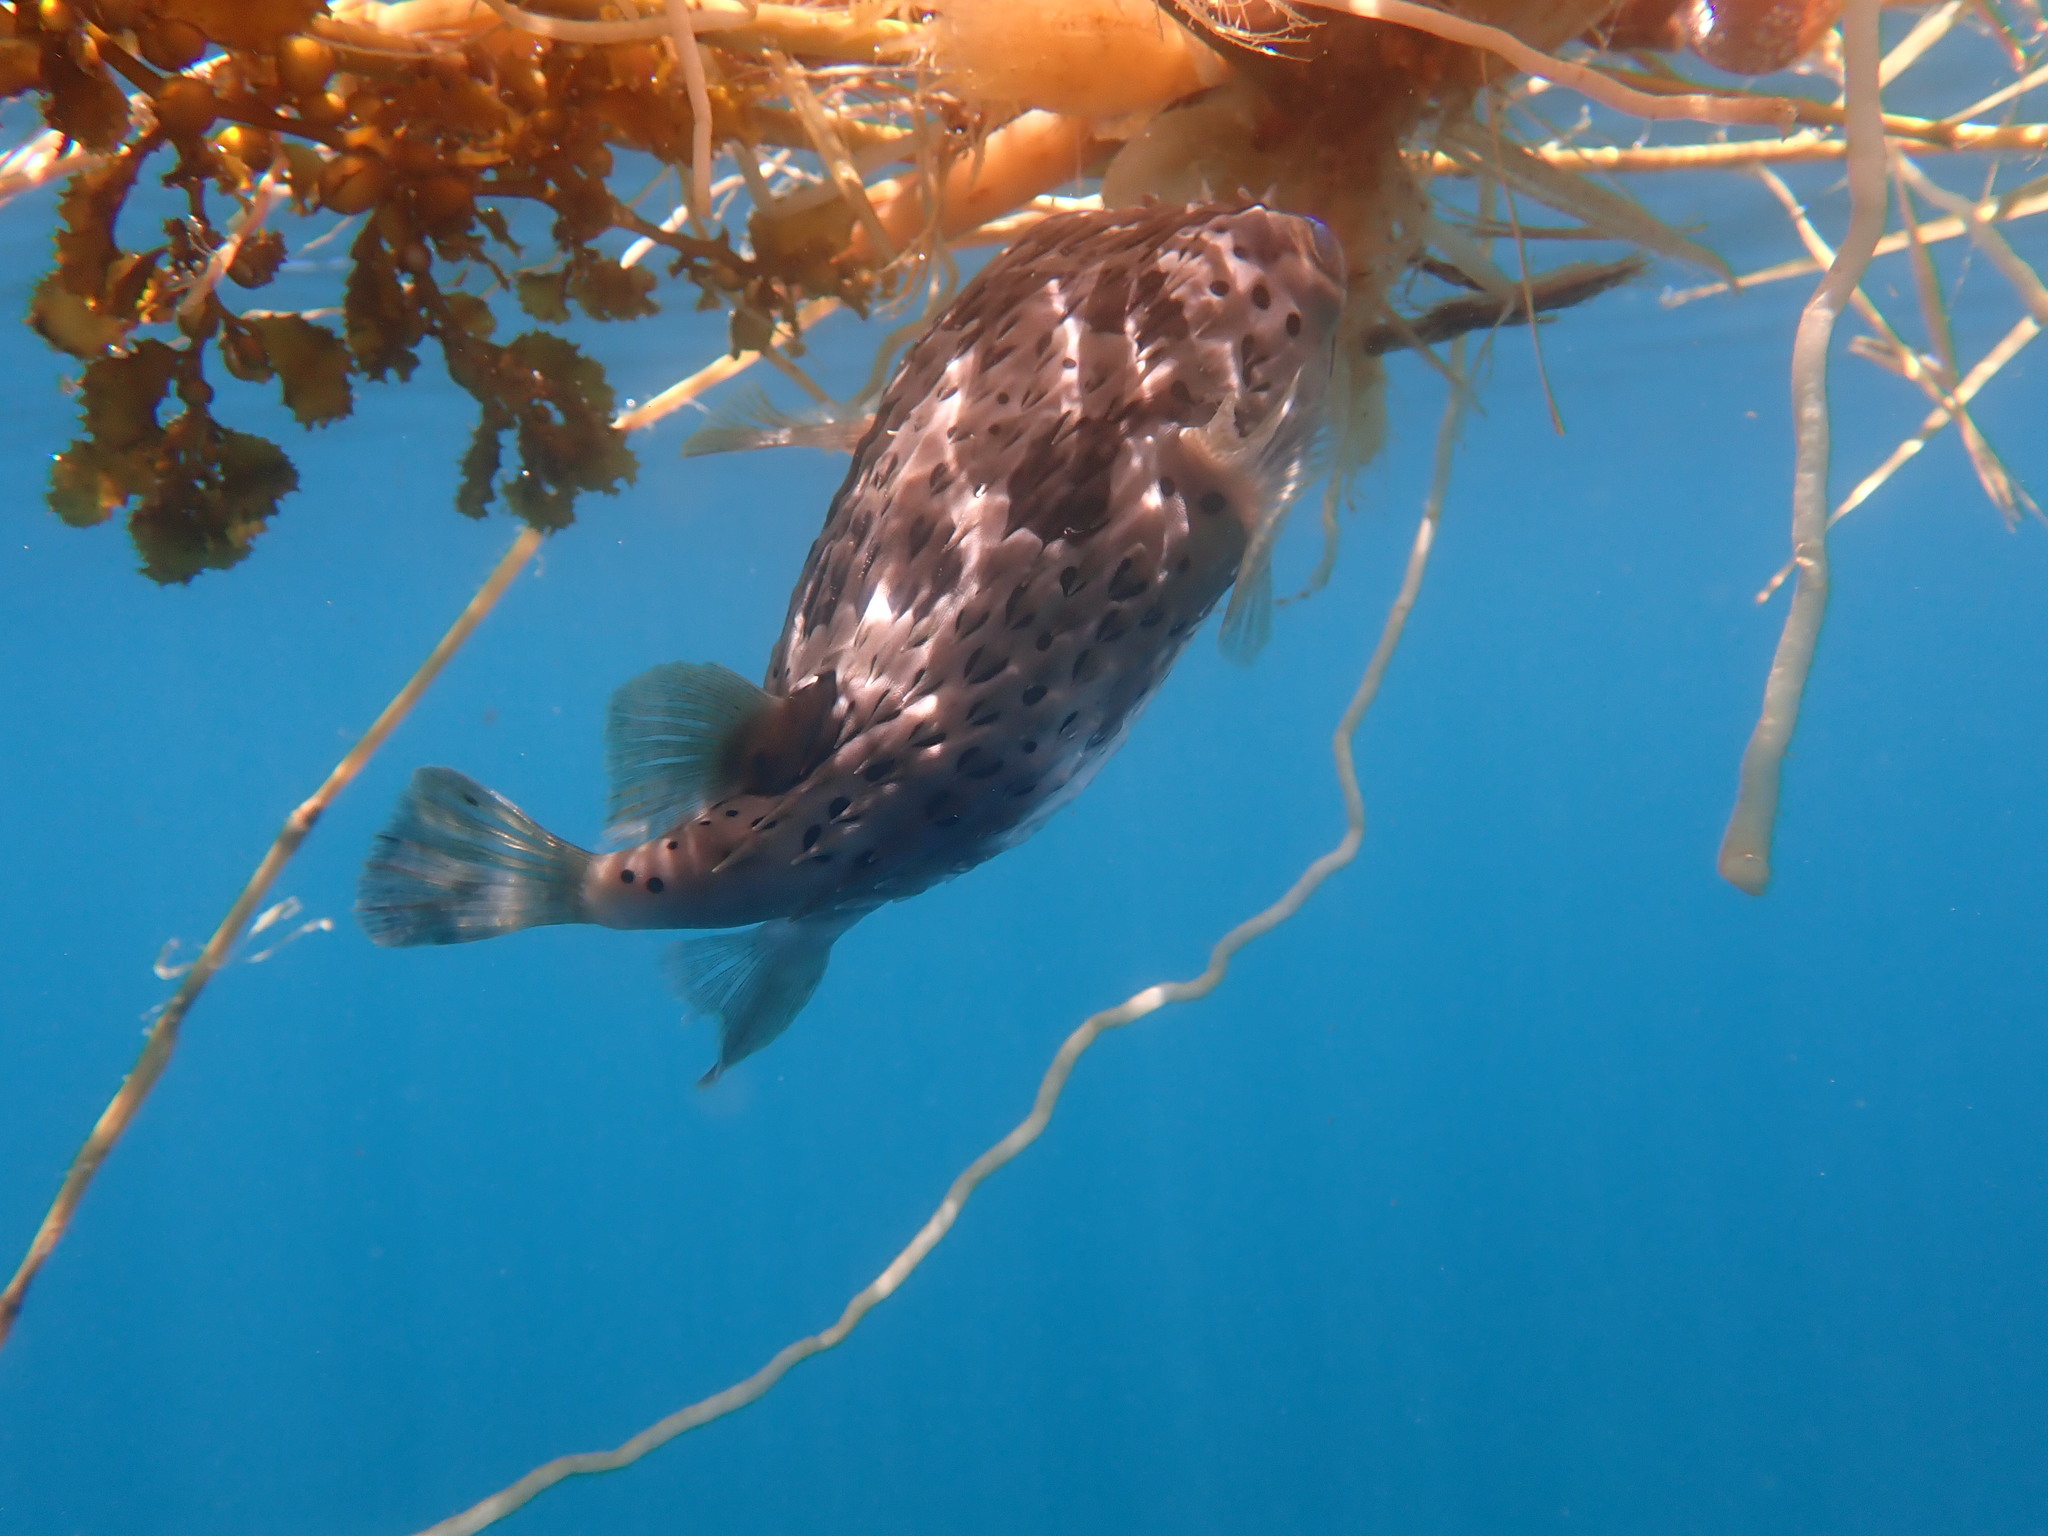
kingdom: Animalia
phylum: Chordata
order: Tetraodontiformes
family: Diodontidae
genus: Diodon
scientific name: Diodon holocanthus
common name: Balloonfish
